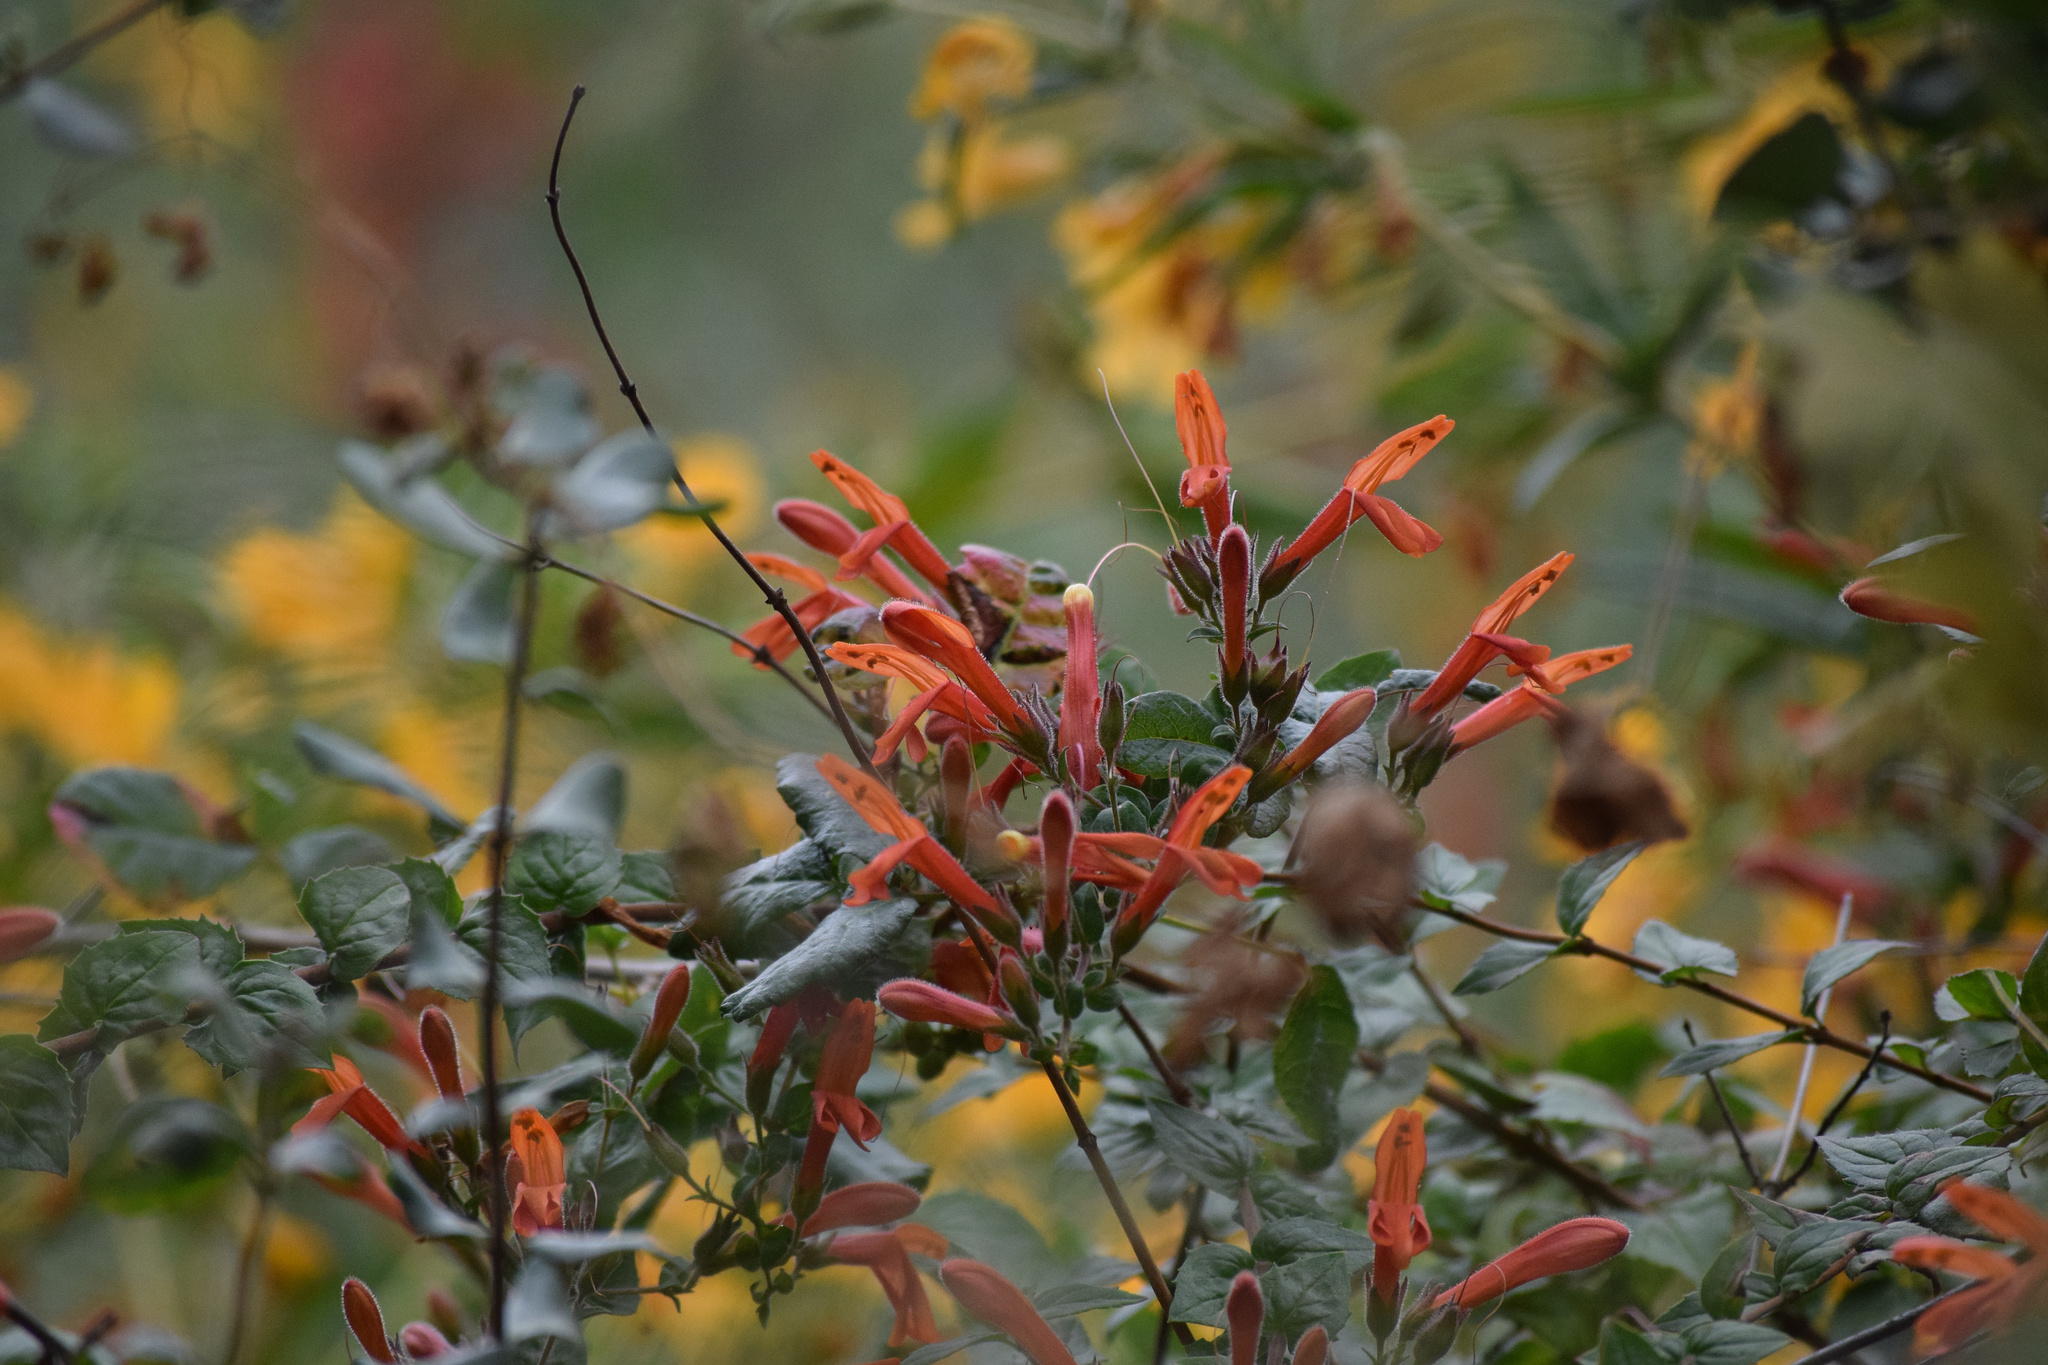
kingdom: Plantae
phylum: Tracheophyta
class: Magnoliopsida
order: Lamiales
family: Plantaginaceae
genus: Keckiella
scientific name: Keckiella cordifolia
